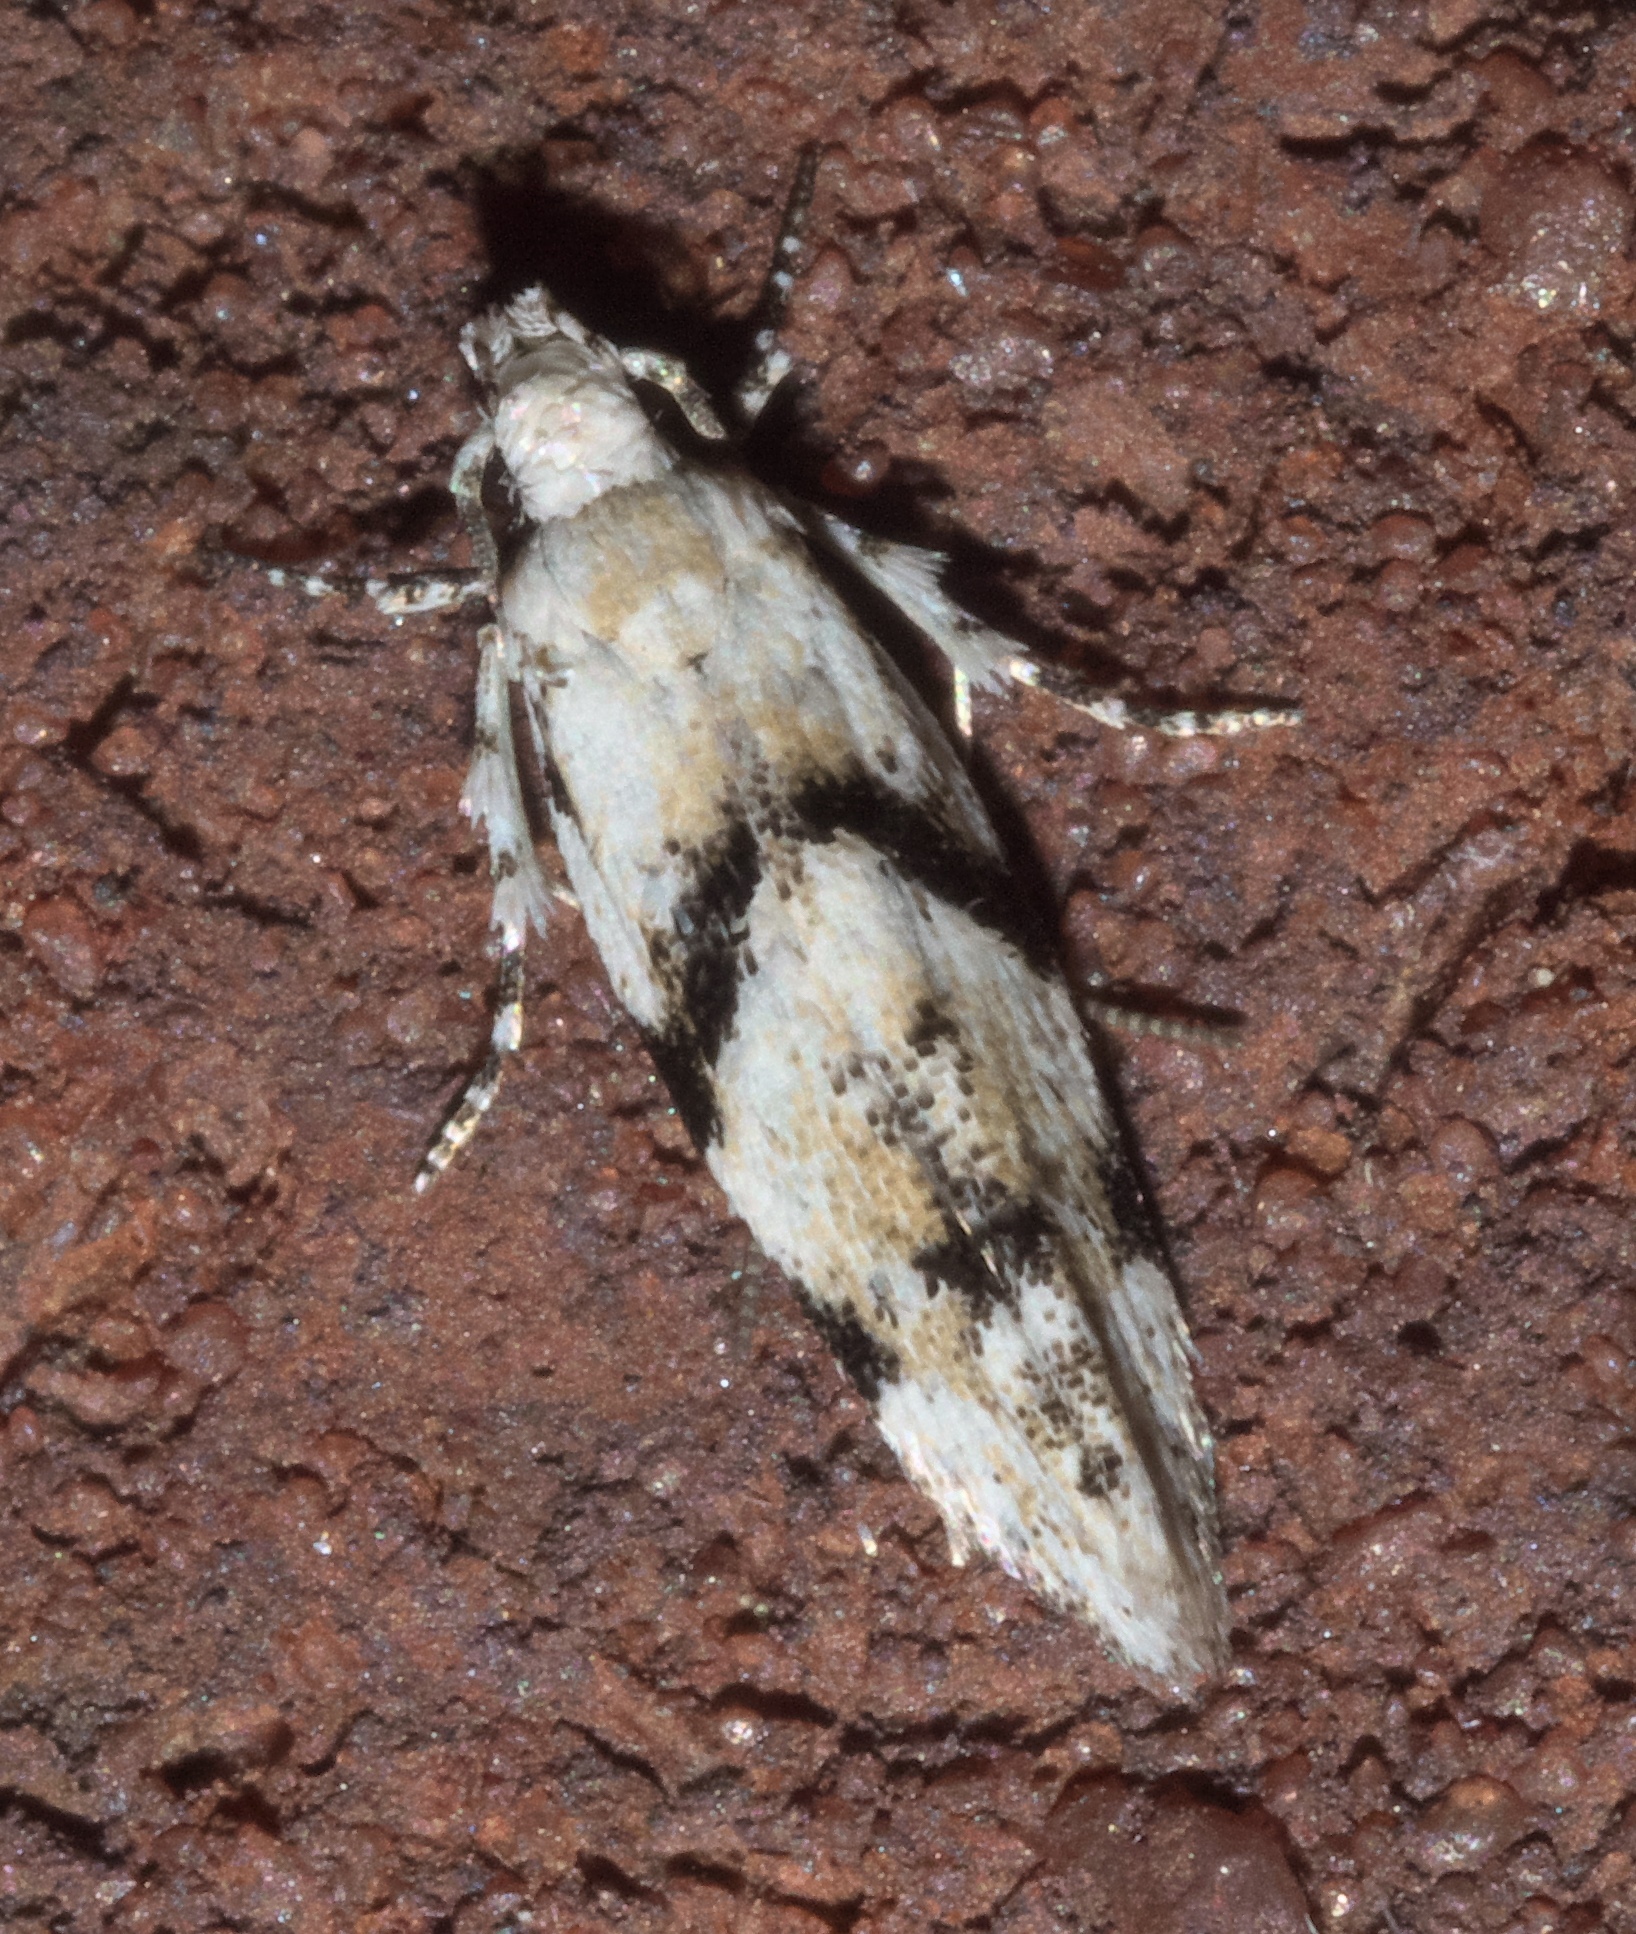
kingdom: Animalia
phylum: Arthropoda
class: Insecta
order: Lepidoptera
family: Gelechiidae
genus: Arogalea
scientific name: Arogalea cristifasciella
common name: White stripe-backed moth
